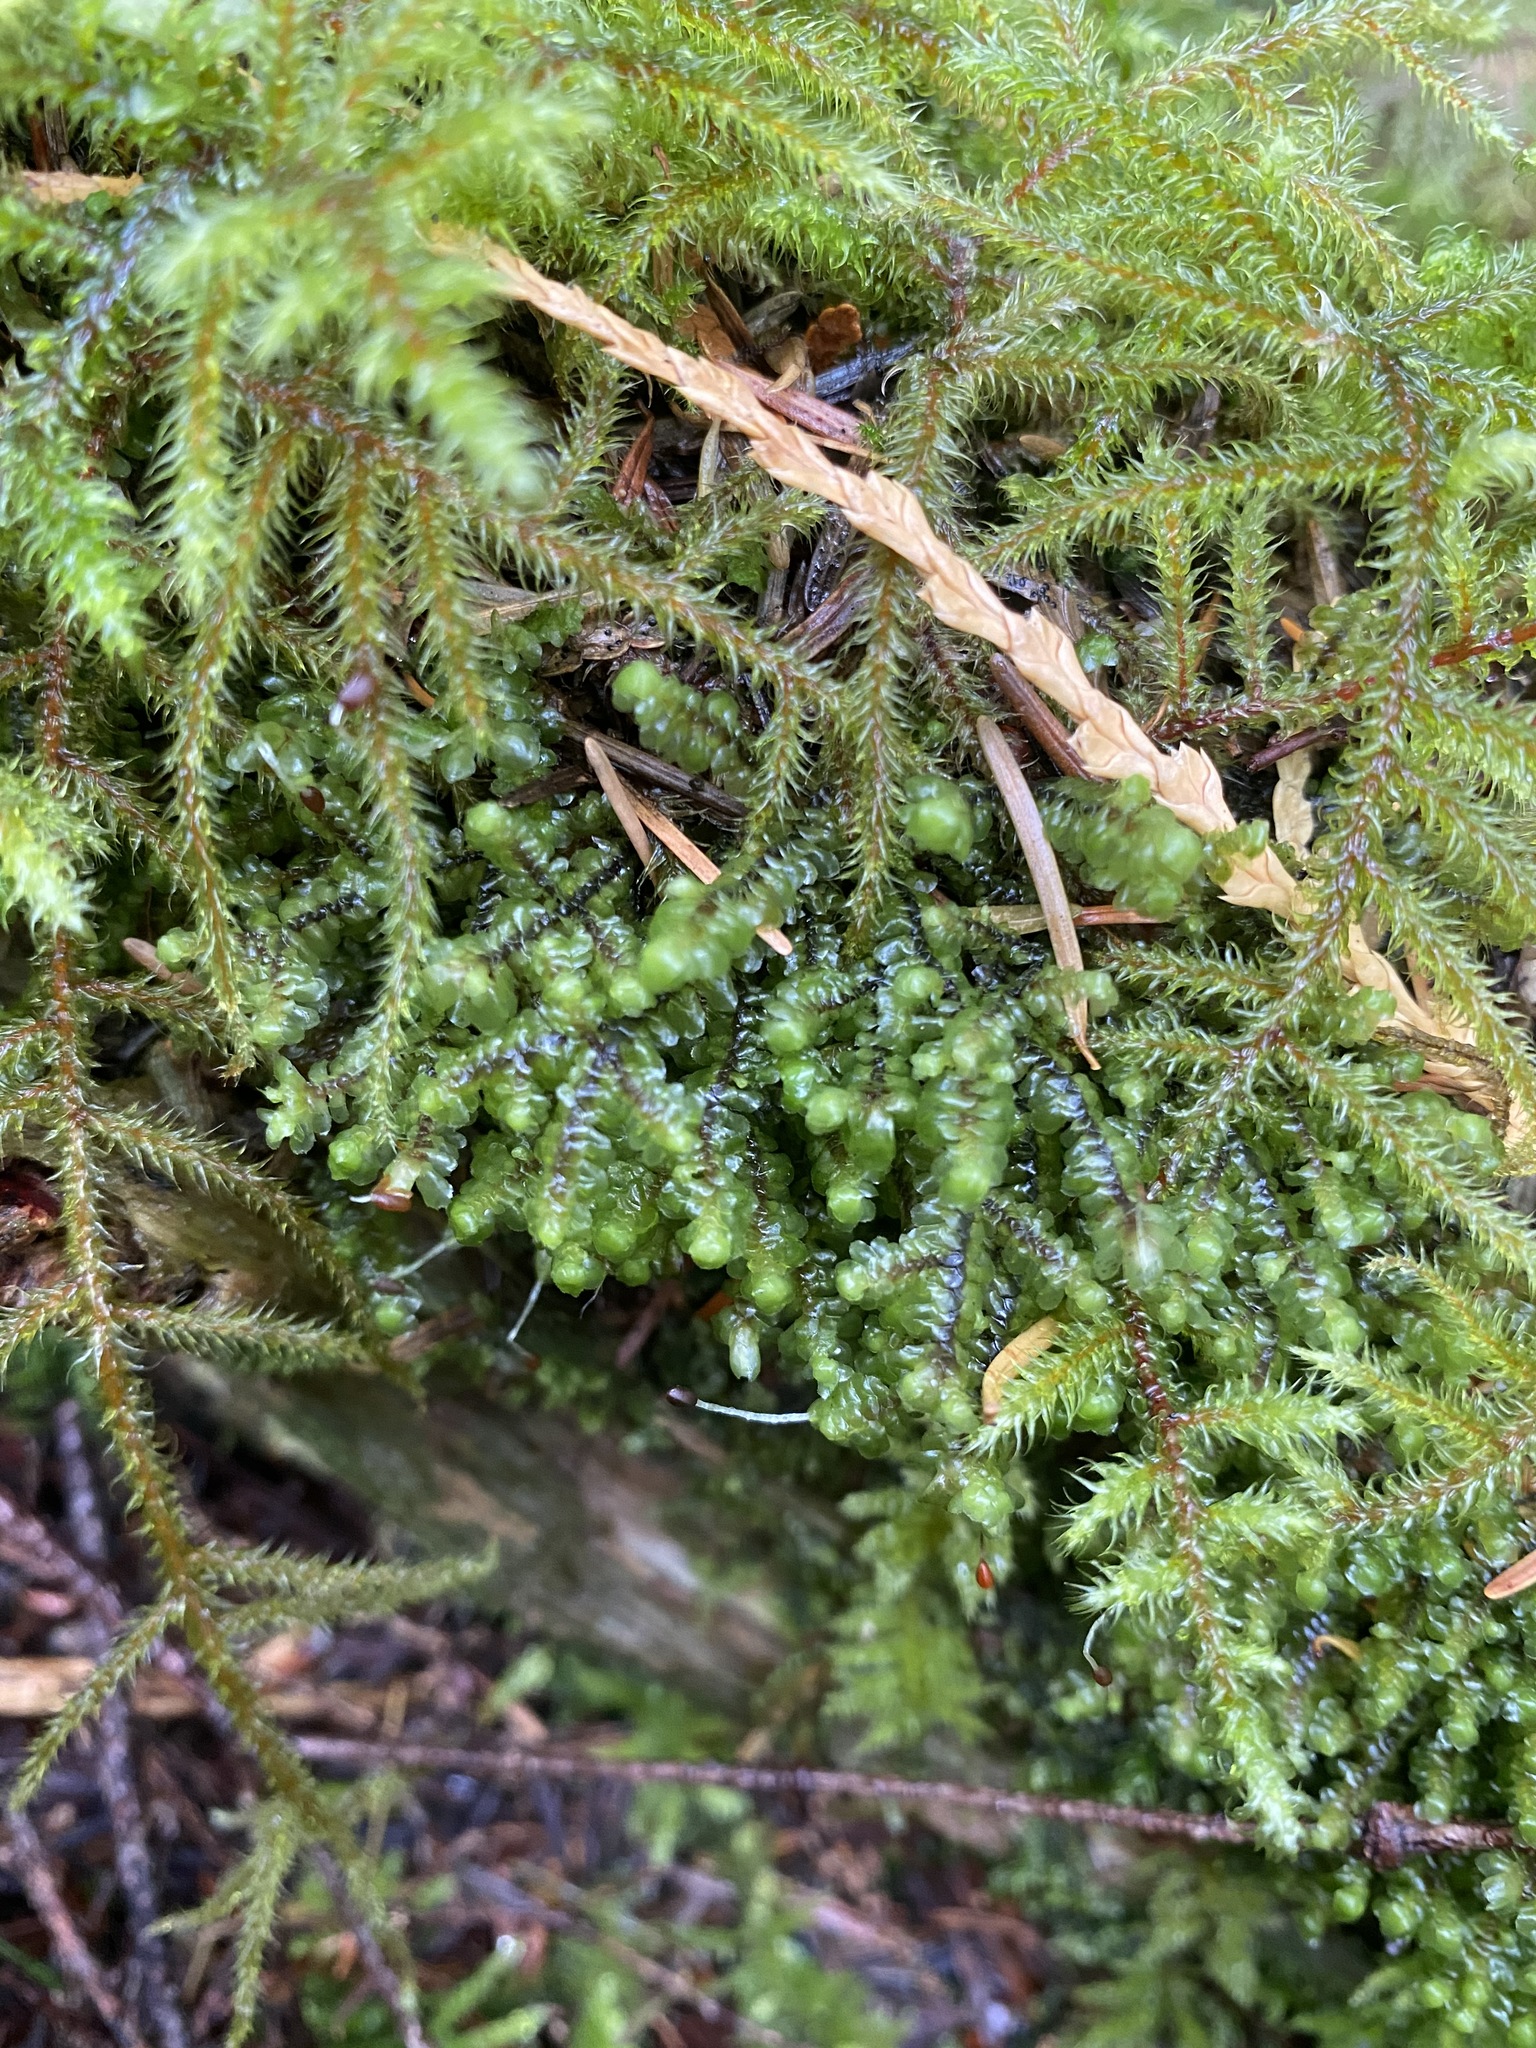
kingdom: Plantae
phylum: Marchantiophyta
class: Jungermanniopsida
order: Jungermanniales
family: Scapaniaceae
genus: Scapania
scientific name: Scapania bolanderi
